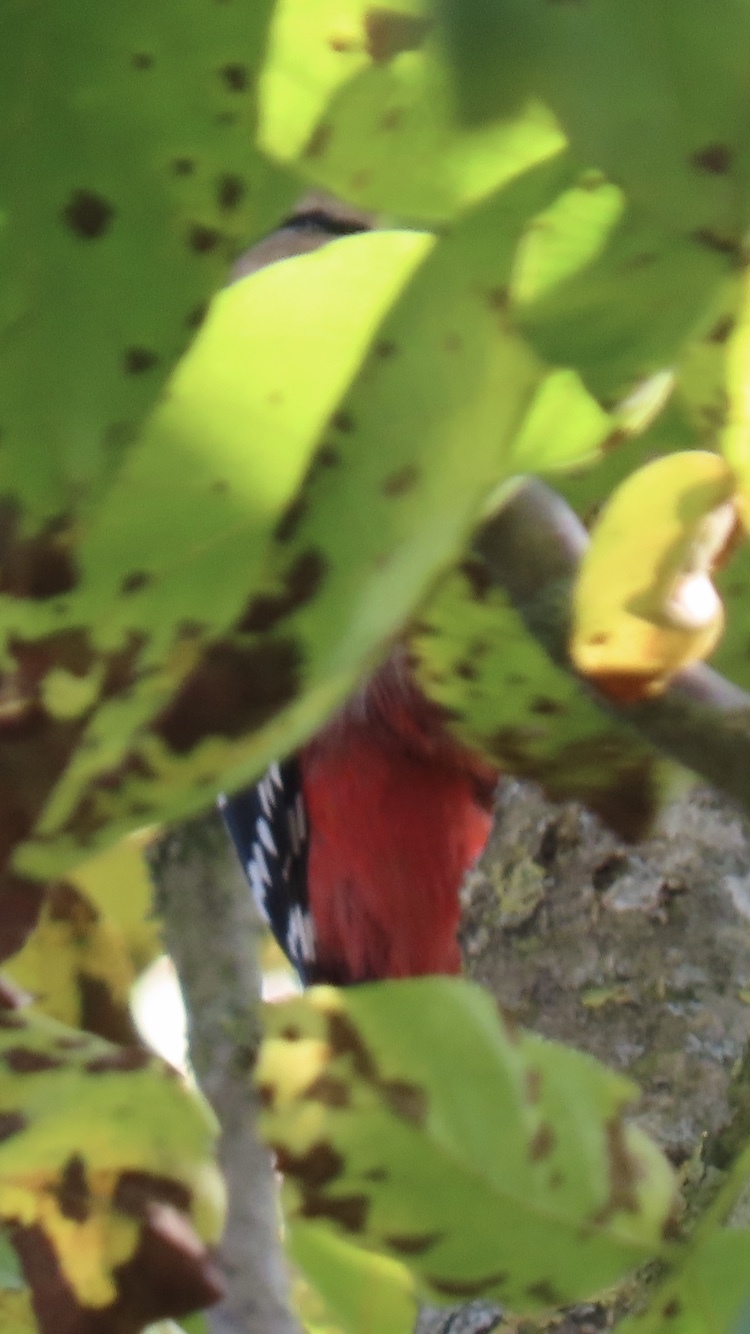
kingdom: Animalia
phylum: Chordata
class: Aves
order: Piciformes
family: Picidae
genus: Dendrocopos
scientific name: Dendrocopos major
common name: Great spotted woodpecker
